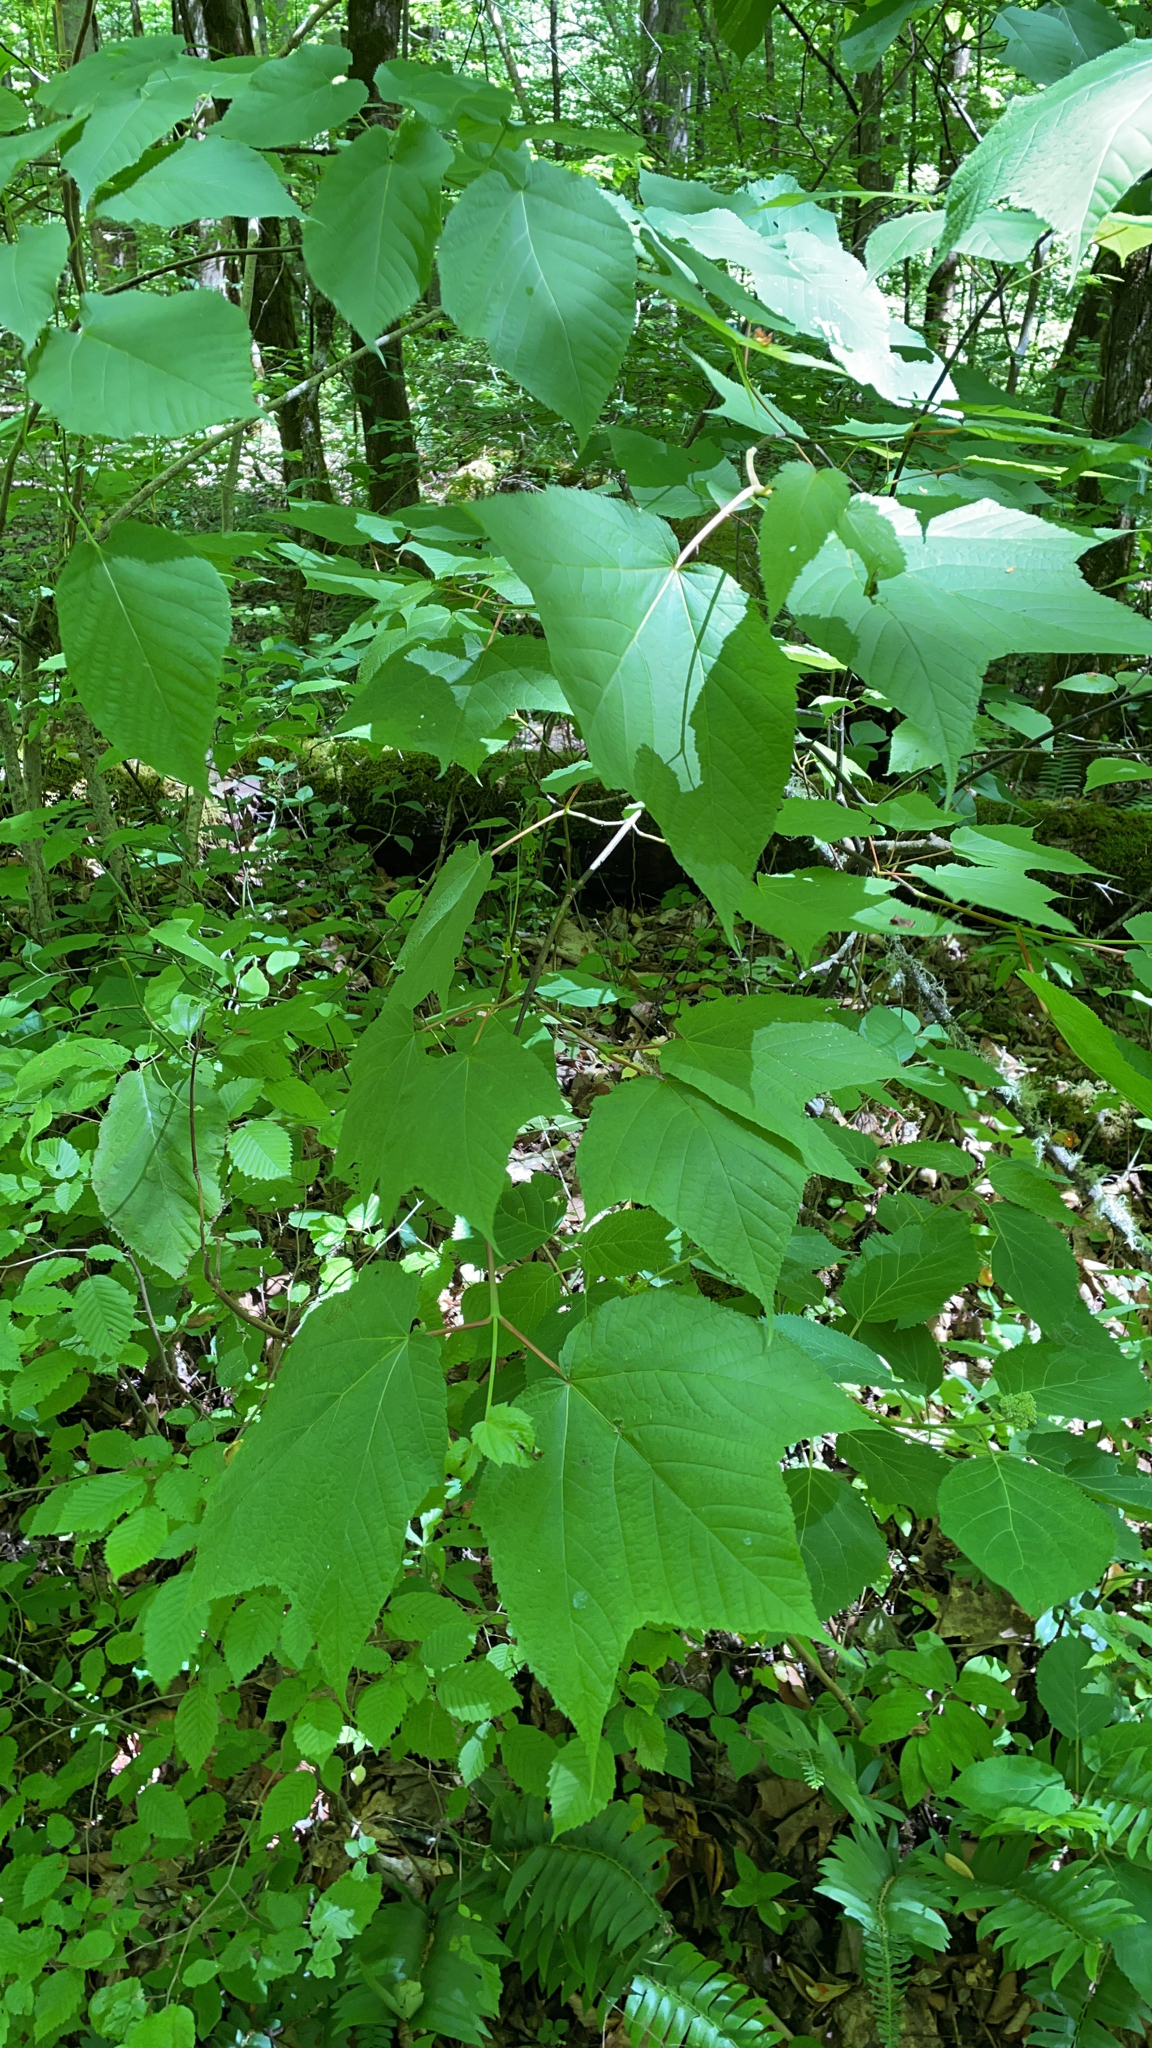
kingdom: Plantae
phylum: Tracheophyta
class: Magnoliopsida
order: Sapindales
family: Sapindaceae
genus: Acer
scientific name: Acer pensylvanicum
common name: Moosewood
